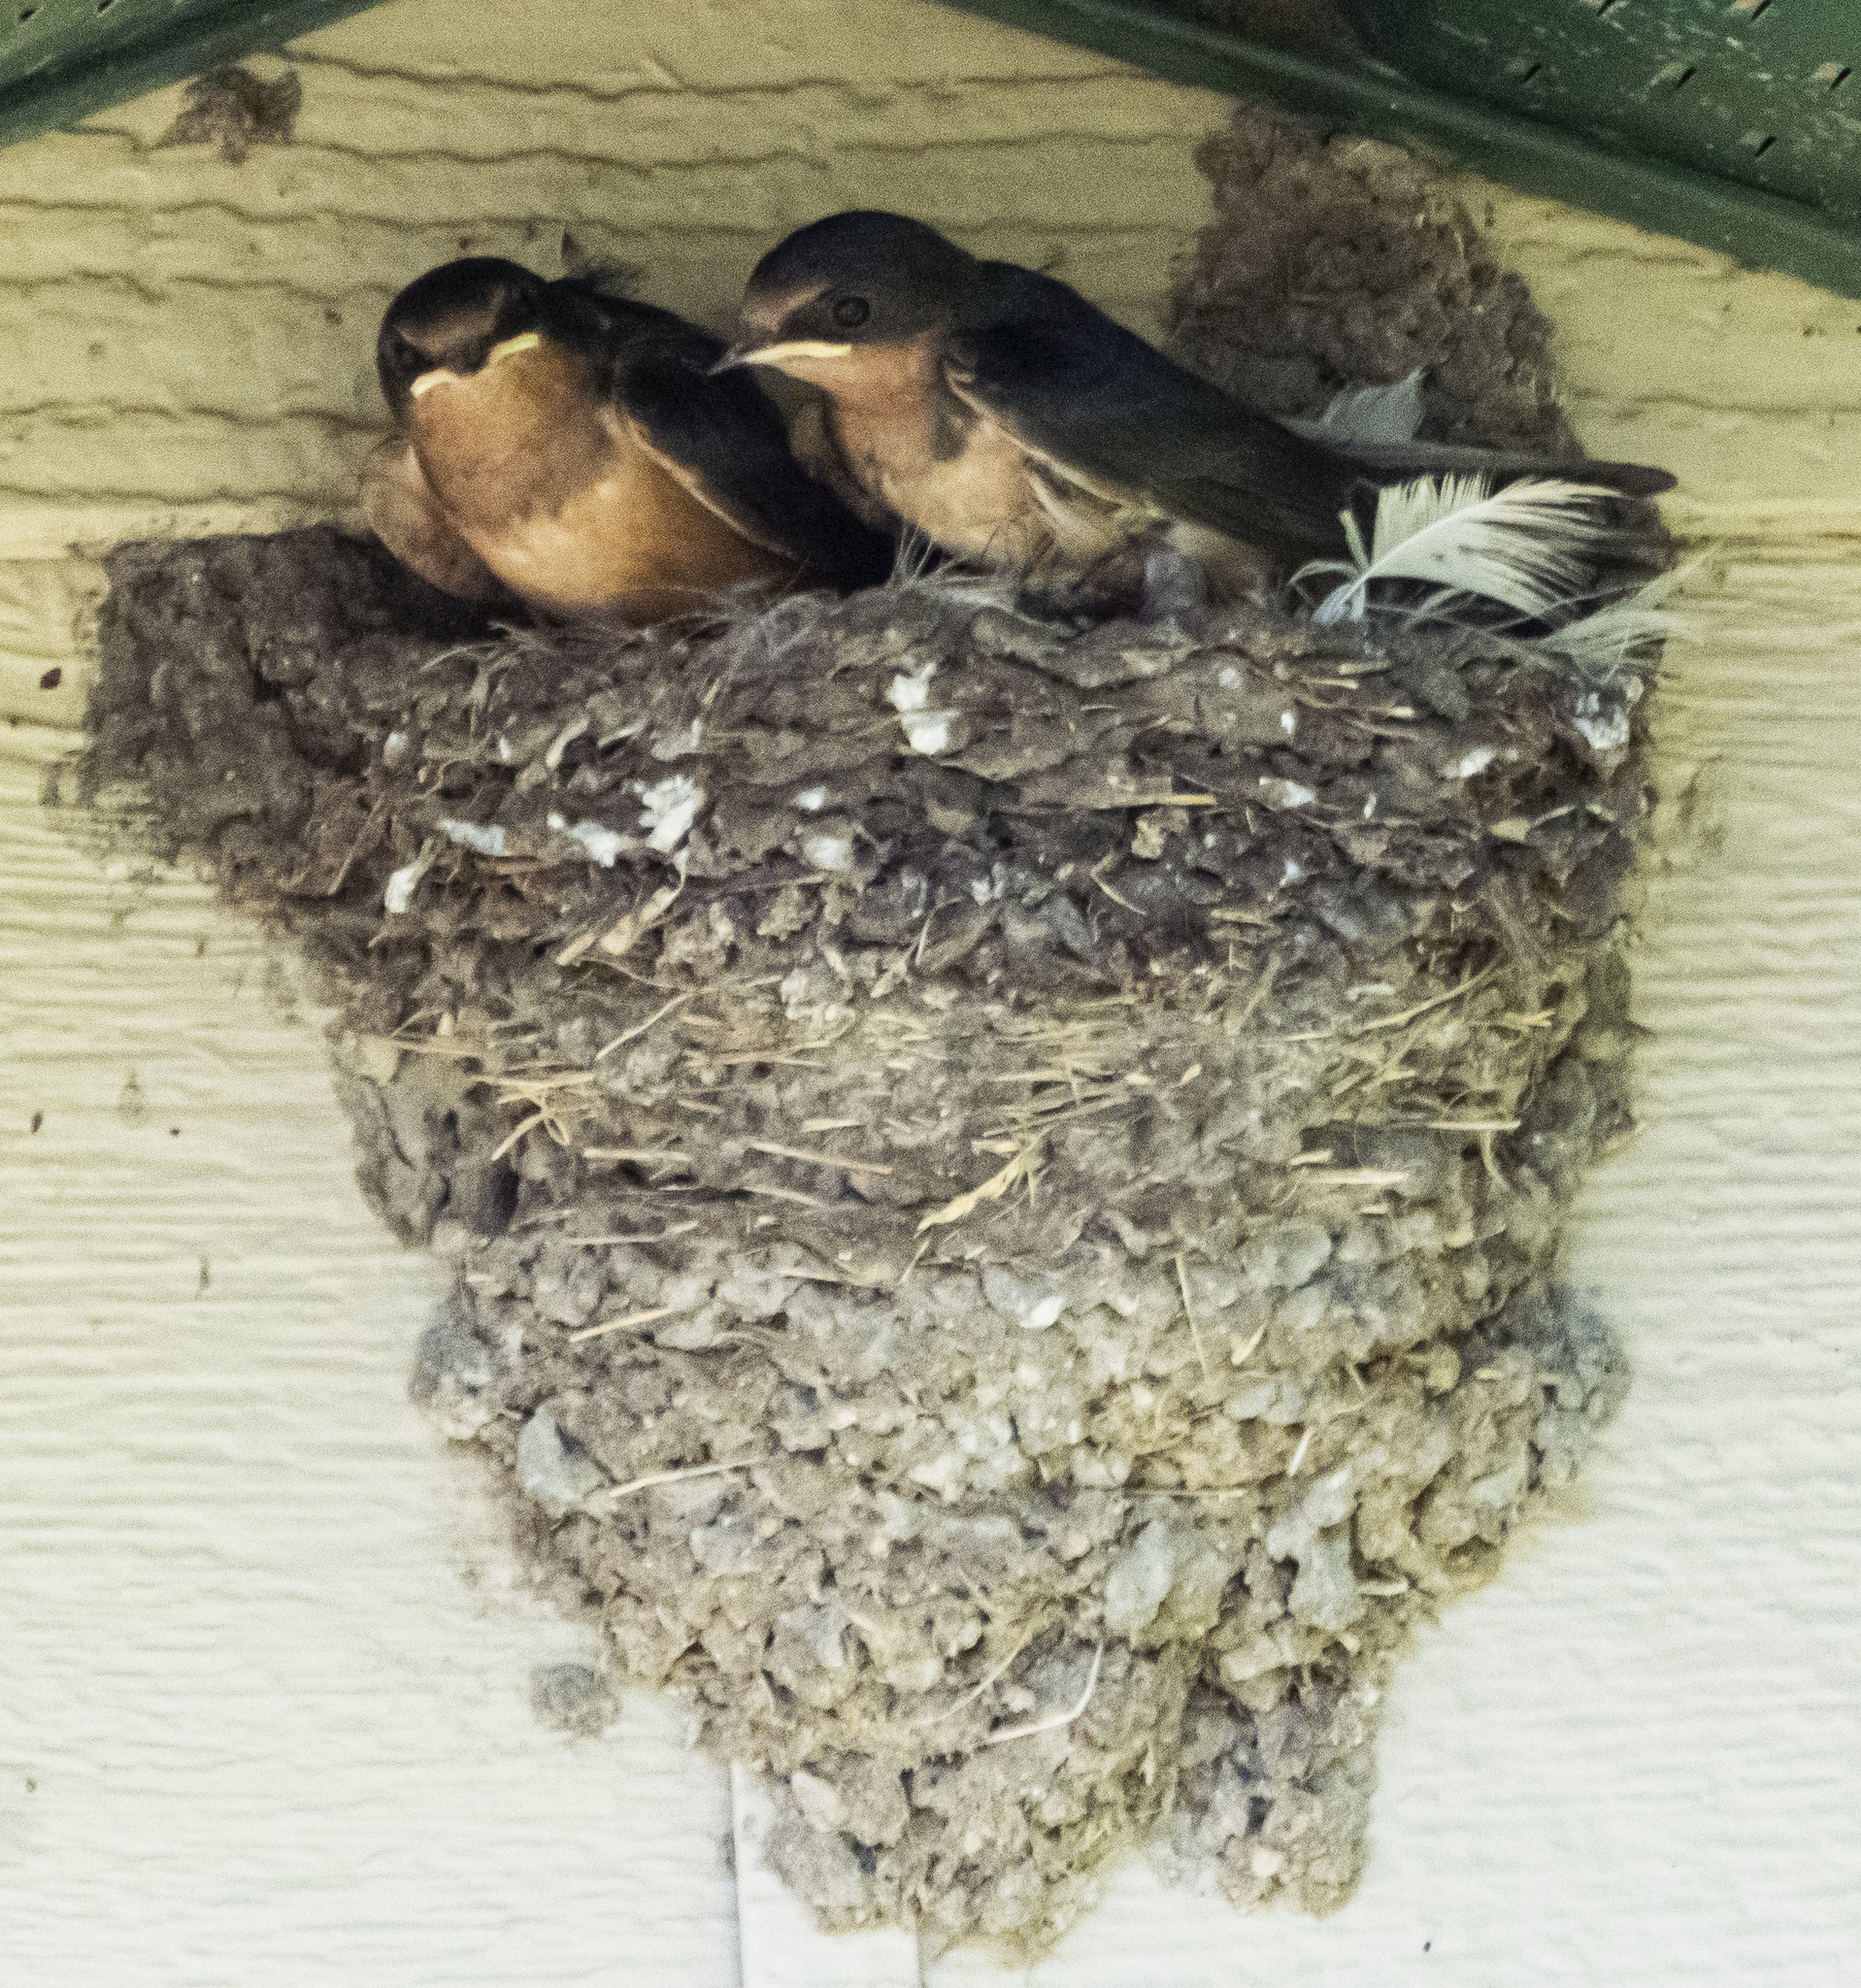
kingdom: Animalia
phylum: Chordata
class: Aves
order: Passeriformes
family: Hirundinidae
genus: Hirundo
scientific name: Hirundo rustica
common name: Barn swallow
